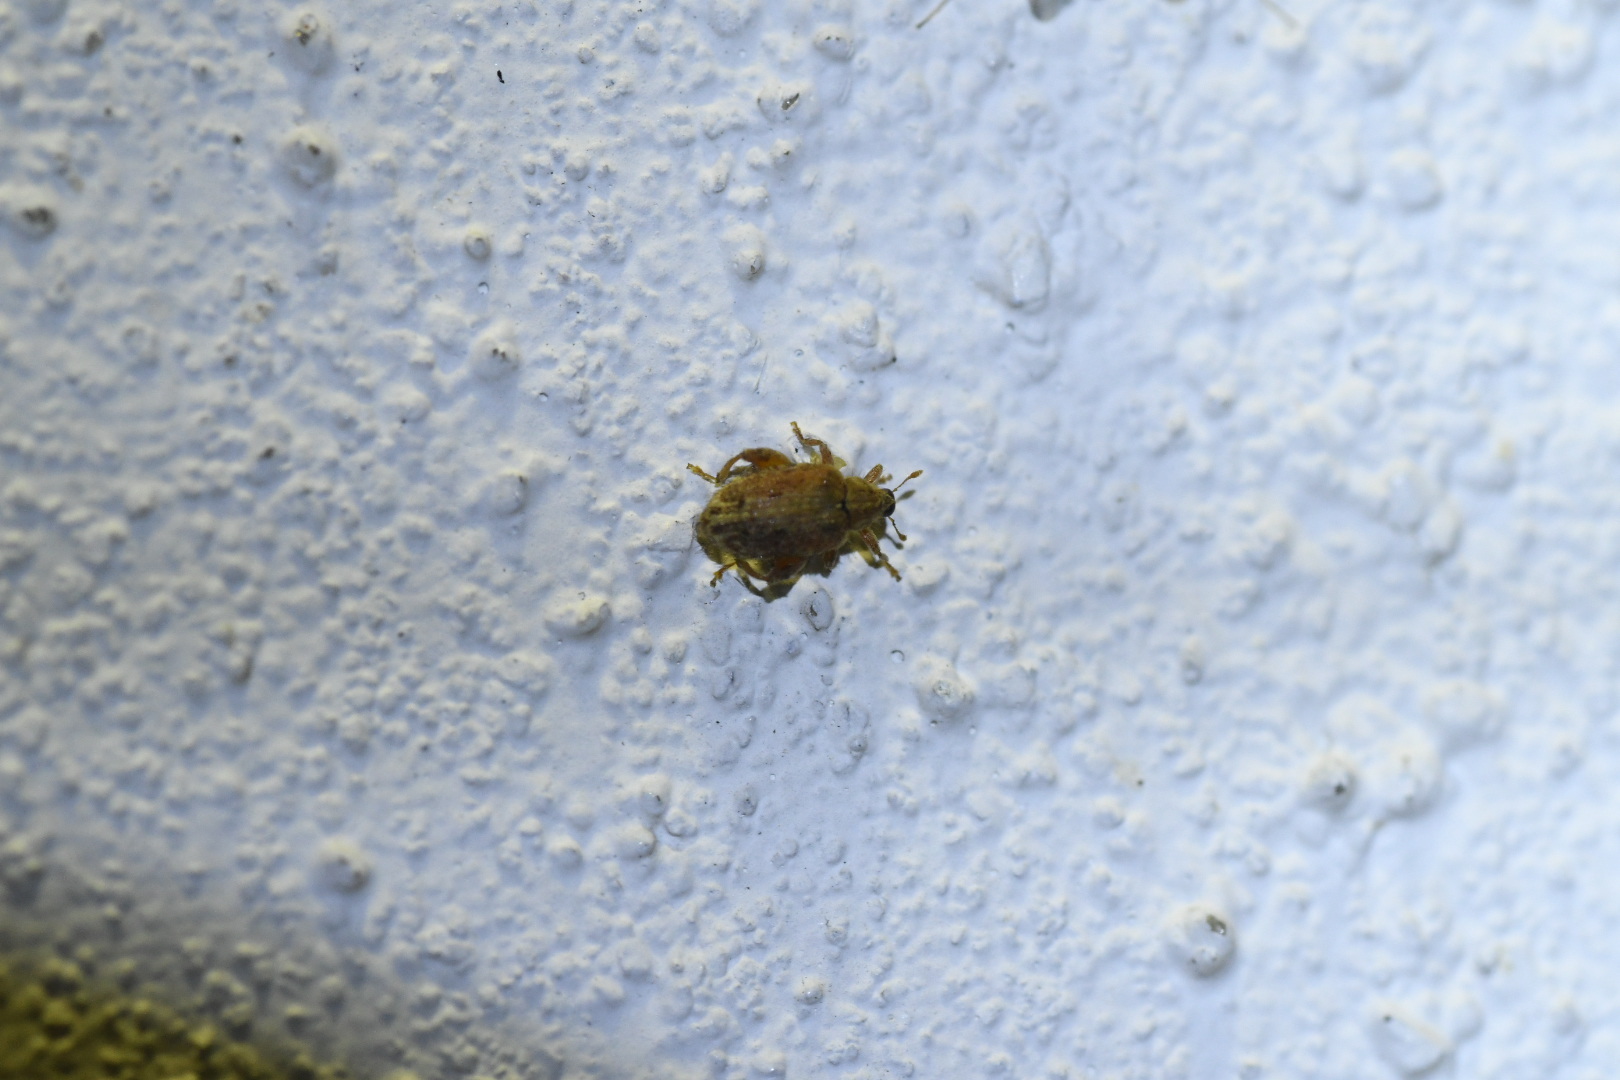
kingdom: Animalia
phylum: Arthropoda
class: Insecta
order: Coleoptera
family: Curculionidae
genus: Orchestes
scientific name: Orchestes quercus
